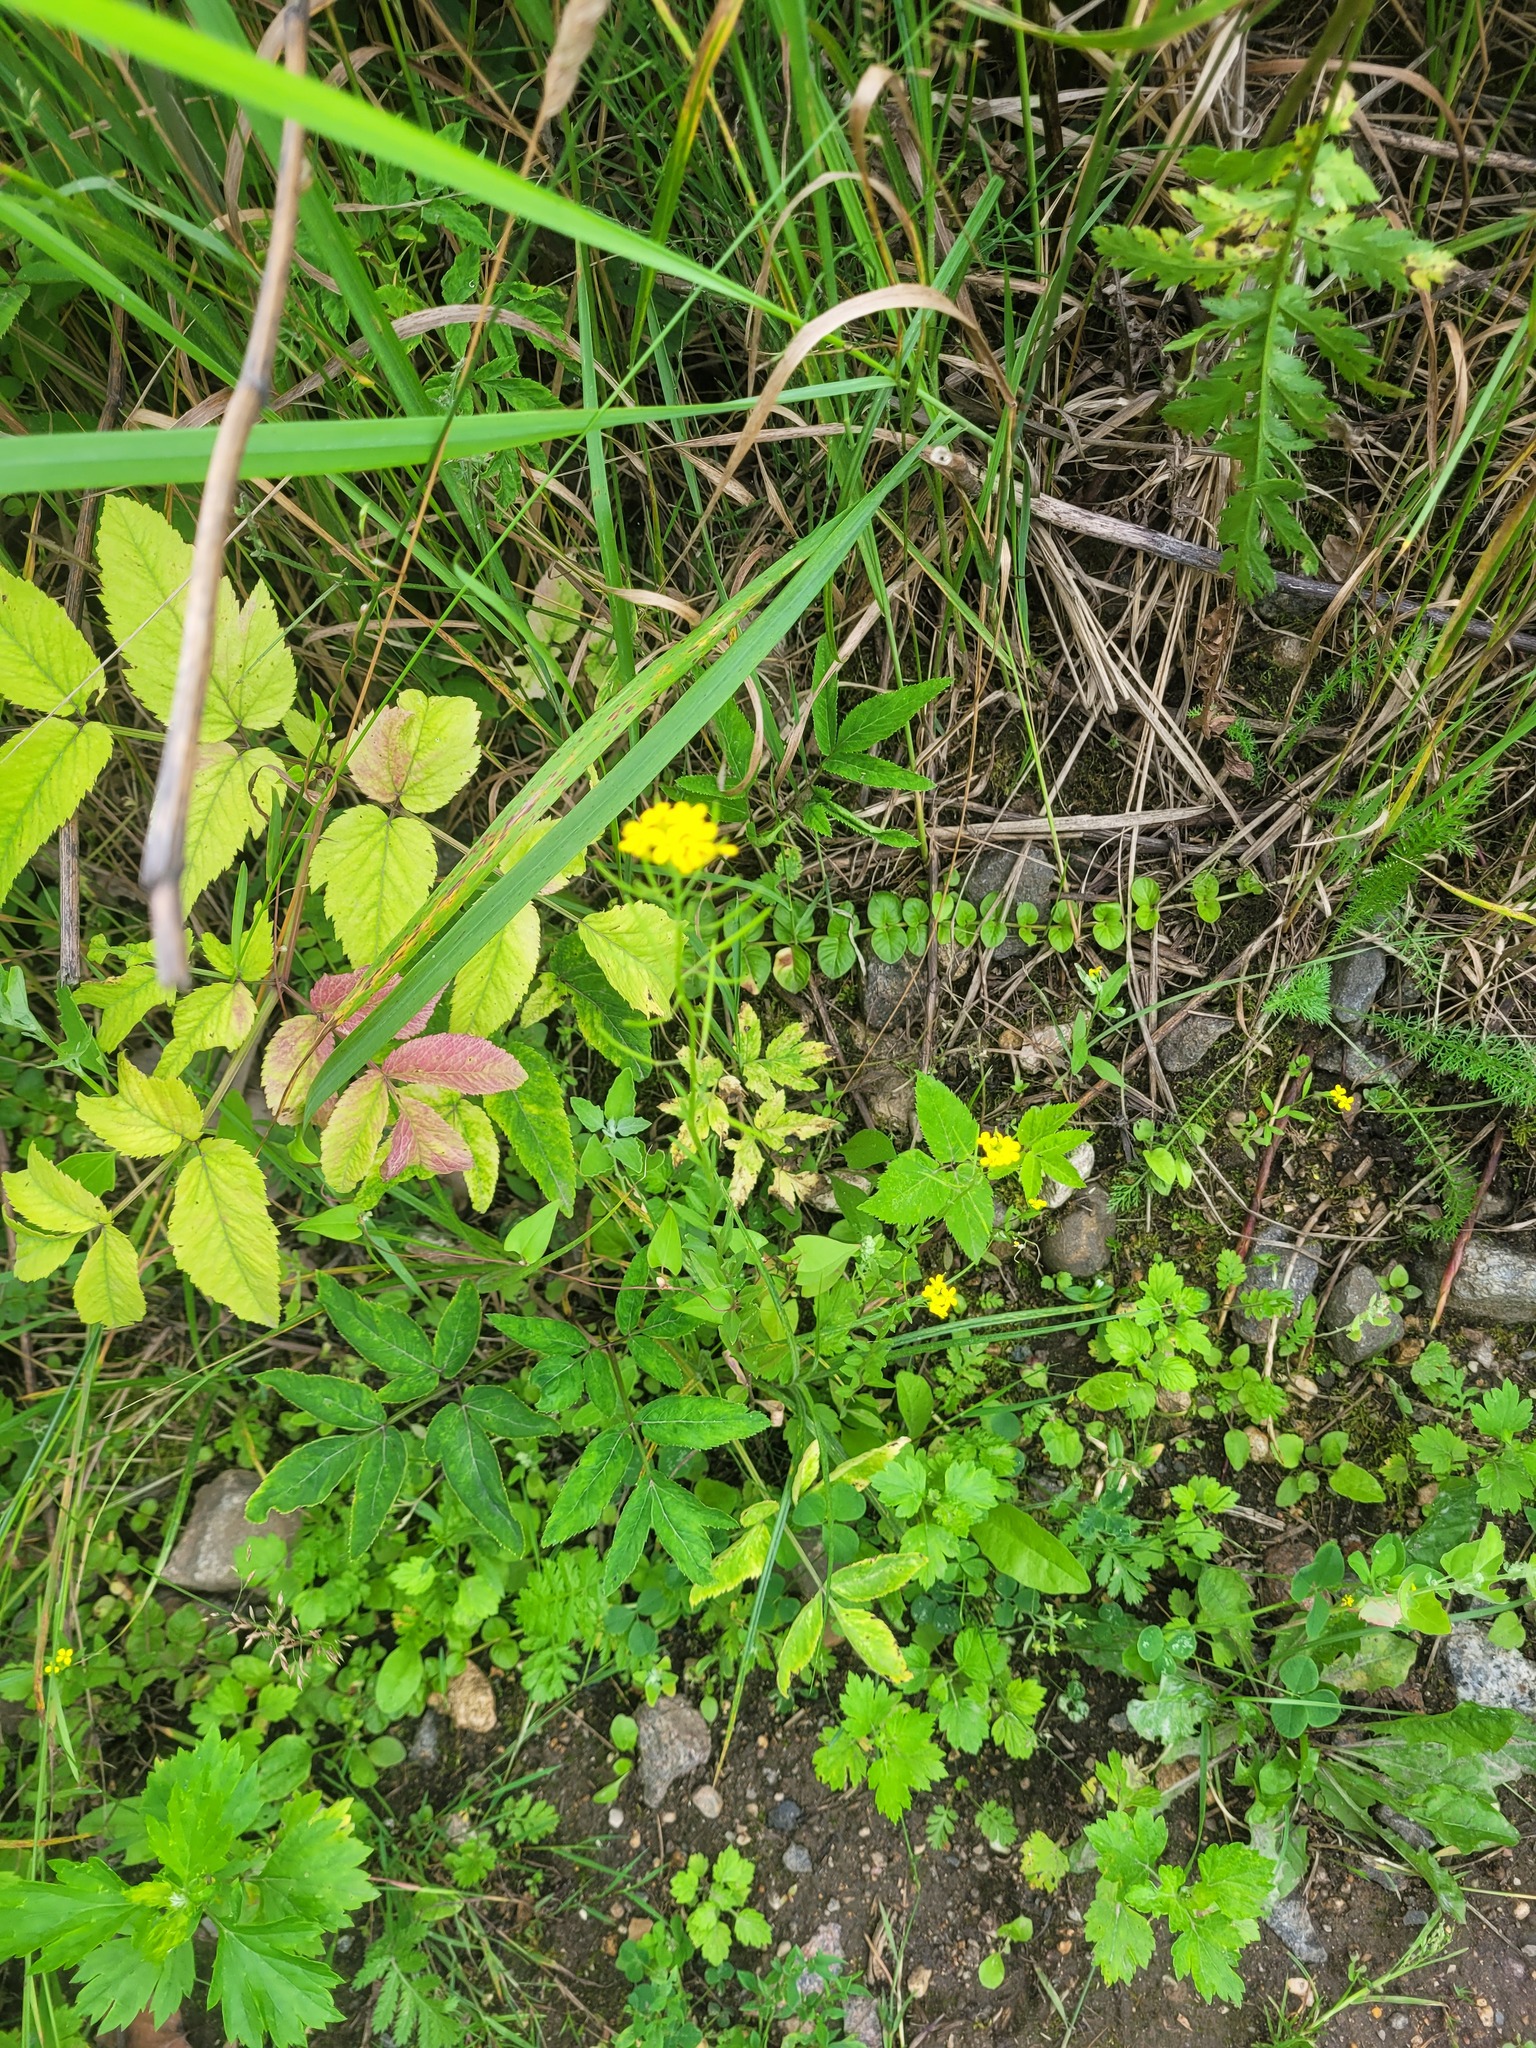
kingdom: Plantae
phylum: Tracheophyta
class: Magnoliopsida
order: Brassicales
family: Brassicaceae
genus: Erysimum
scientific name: Erysimum cheiranthoides
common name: Treacle mustard
